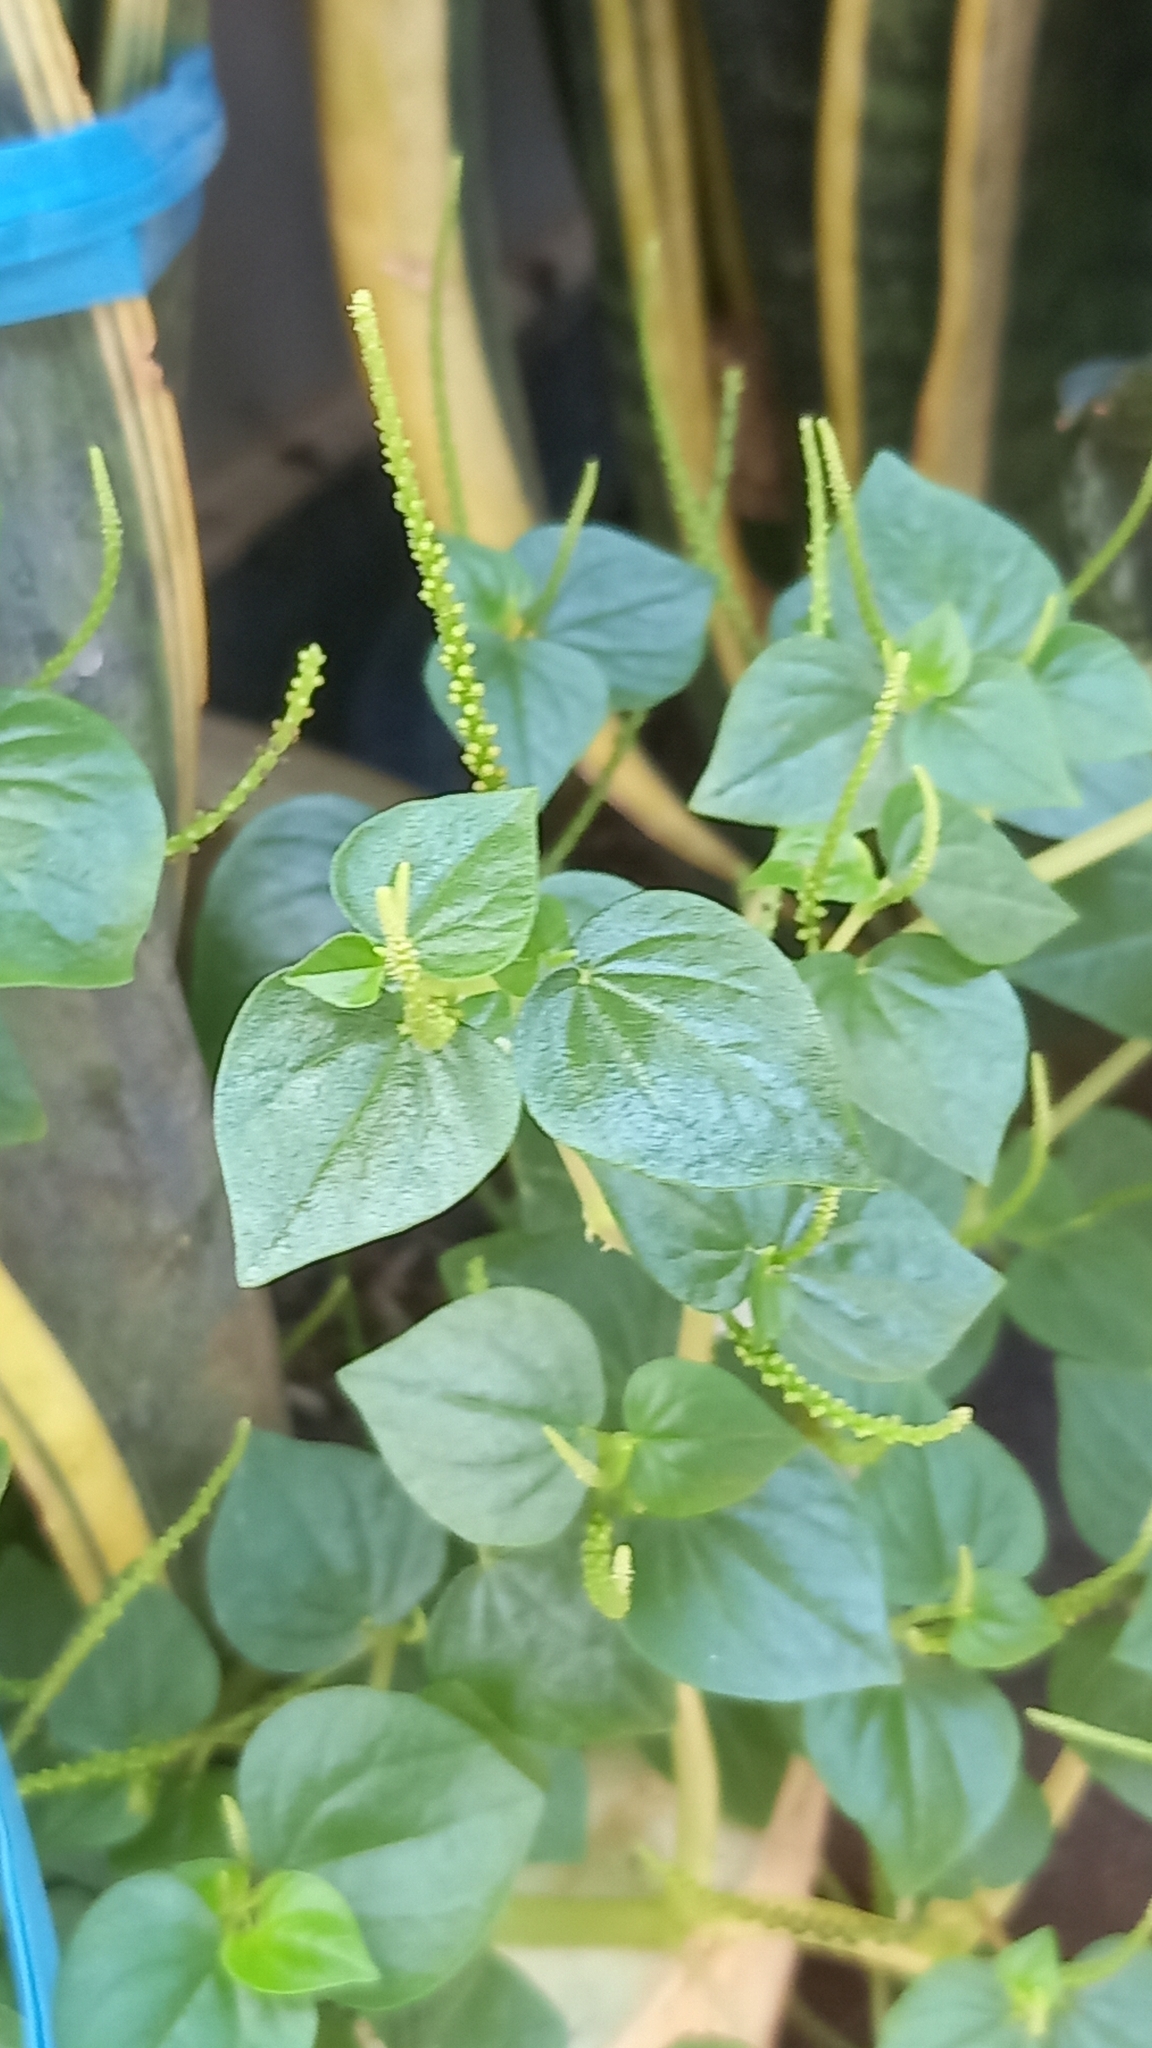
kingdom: Plantae
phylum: Tracheophyta
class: Magnoliopsida
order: Piperales
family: Piperaceae
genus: Peperomia
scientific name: Peperomia pellucida
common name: Man to man
